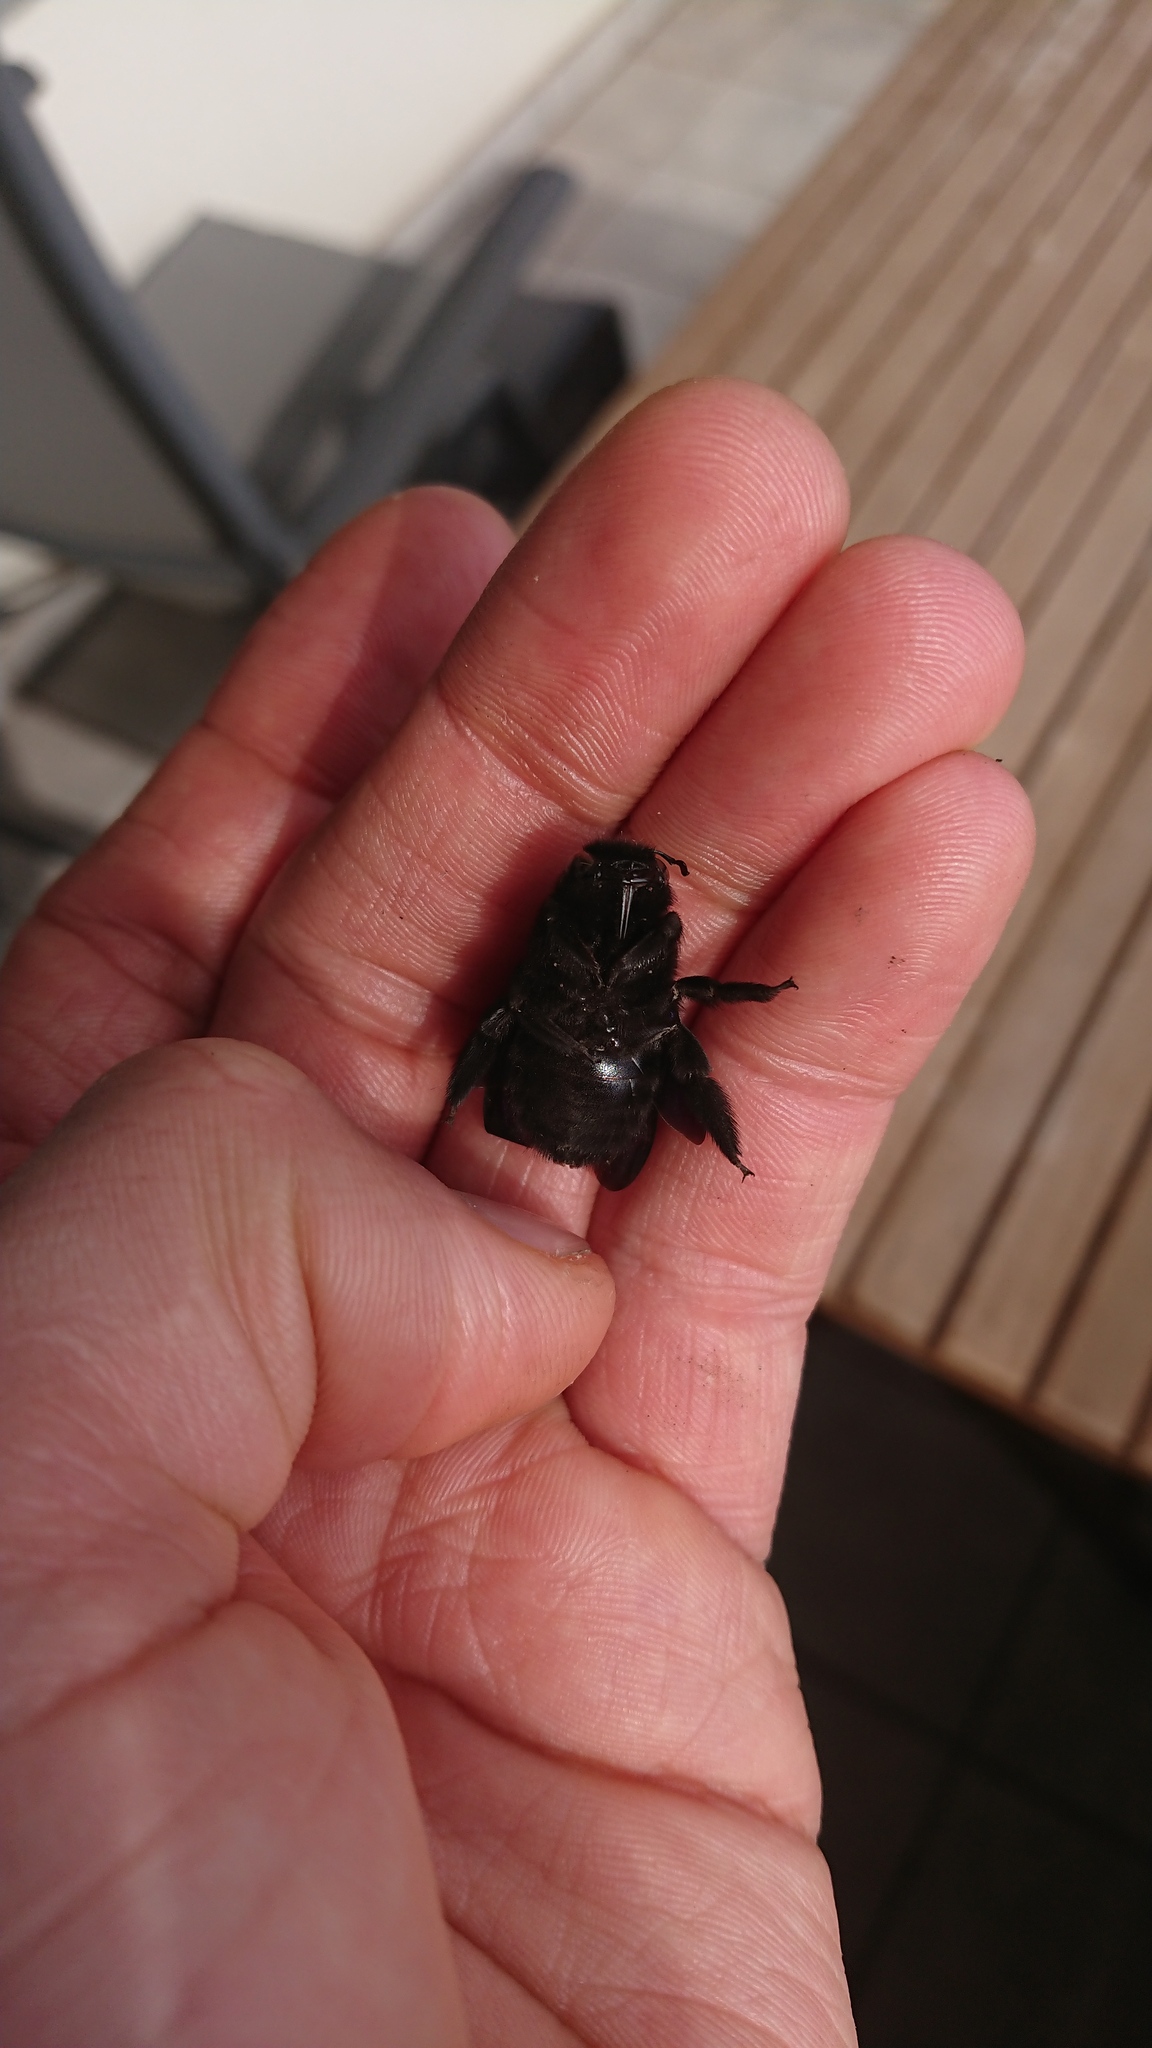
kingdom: Animalia
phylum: Arthropoda
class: Insecta
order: Hymenoptera
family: Apidae
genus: Xylocopa
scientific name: Xylocopa violacea
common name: Violet carpenter bee
